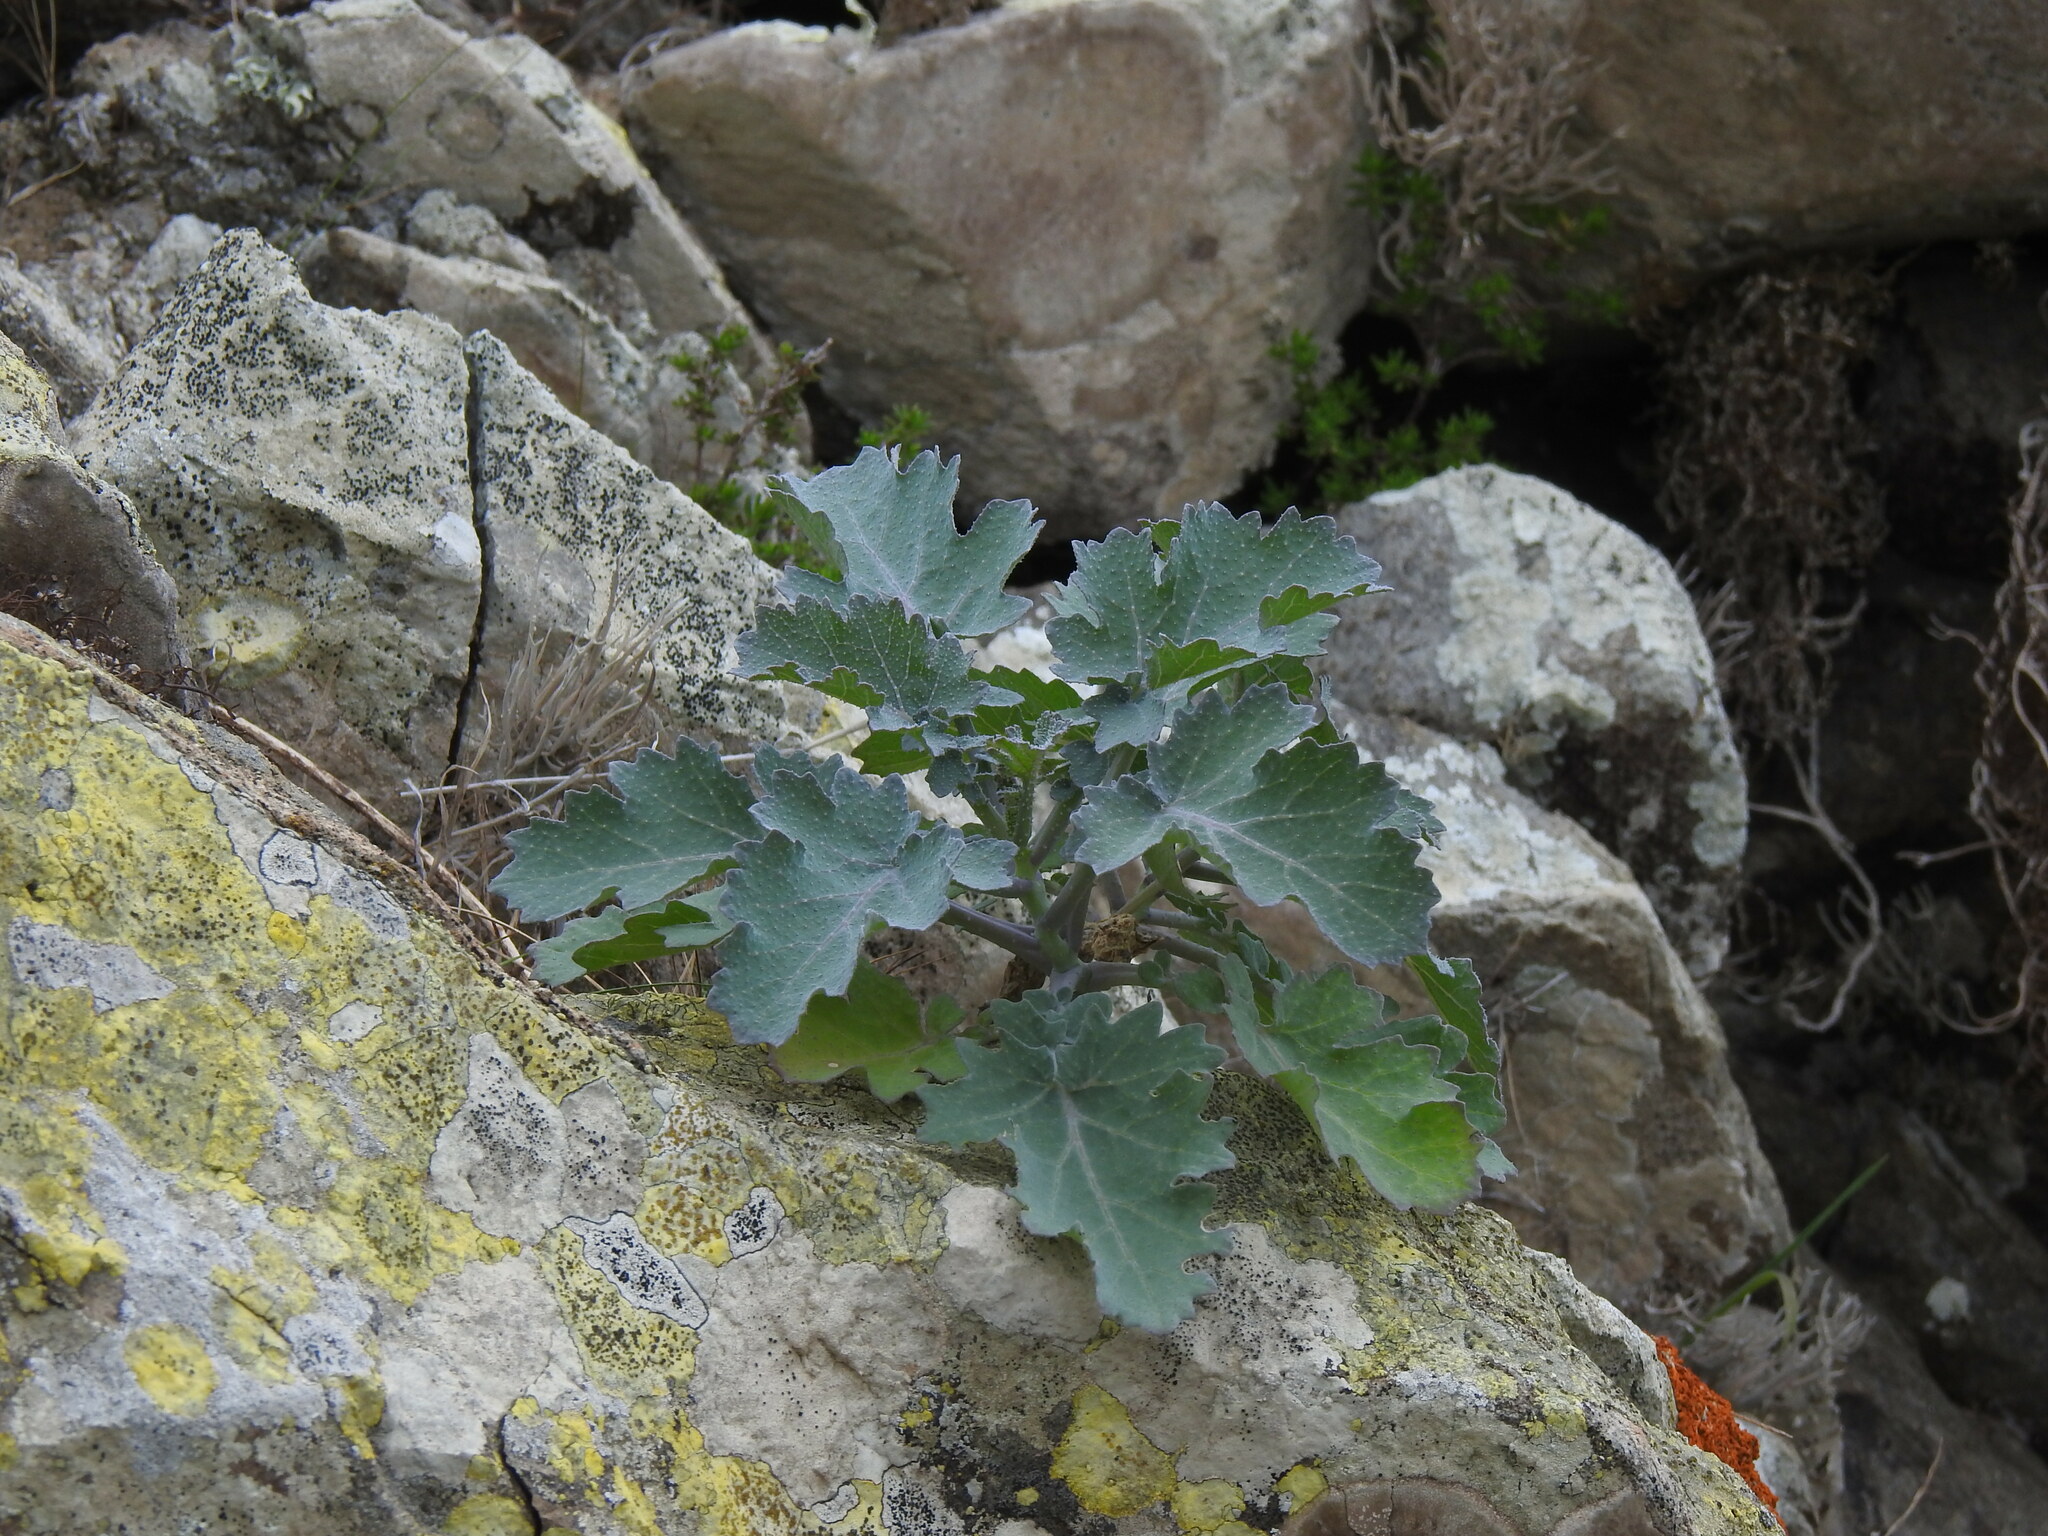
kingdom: Plantae
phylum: Tracheophyta
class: Magnoliopsida
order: Brassicales
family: Brassicaceae
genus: Crambe
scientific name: Crambe fruticosa
